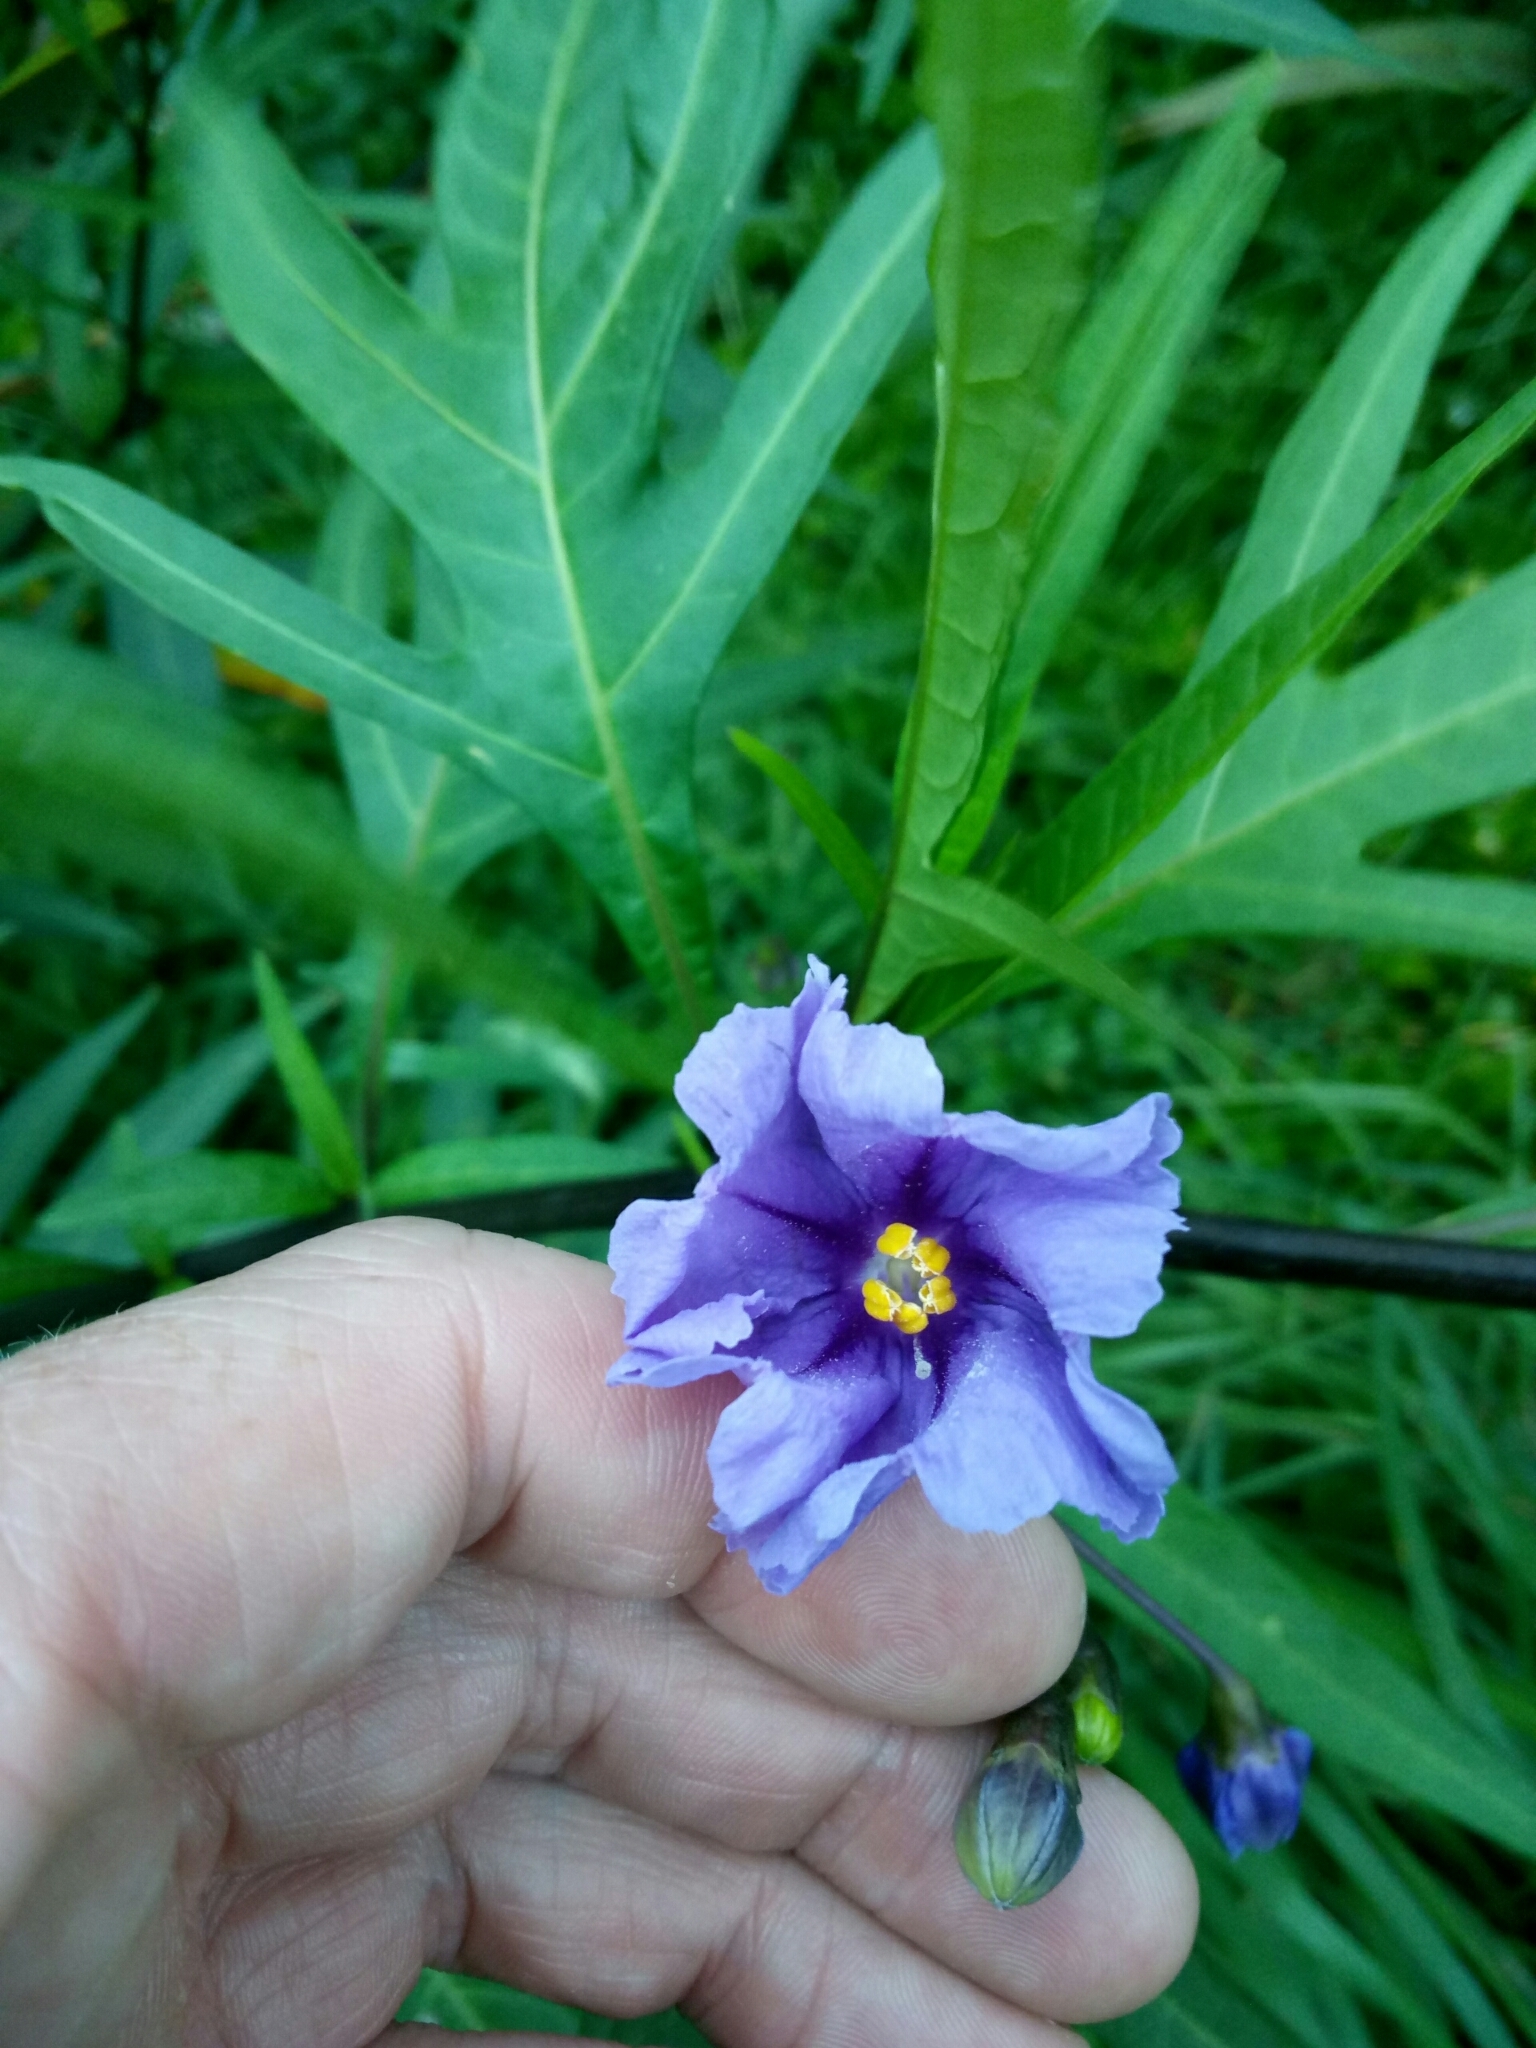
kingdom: Plantae
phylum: Tracheophyta
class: Magnoliopsida
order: Solanales
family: Solanaceae
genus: Solanum
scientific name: Solanum laciniatum
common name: Kangaroo-apple
